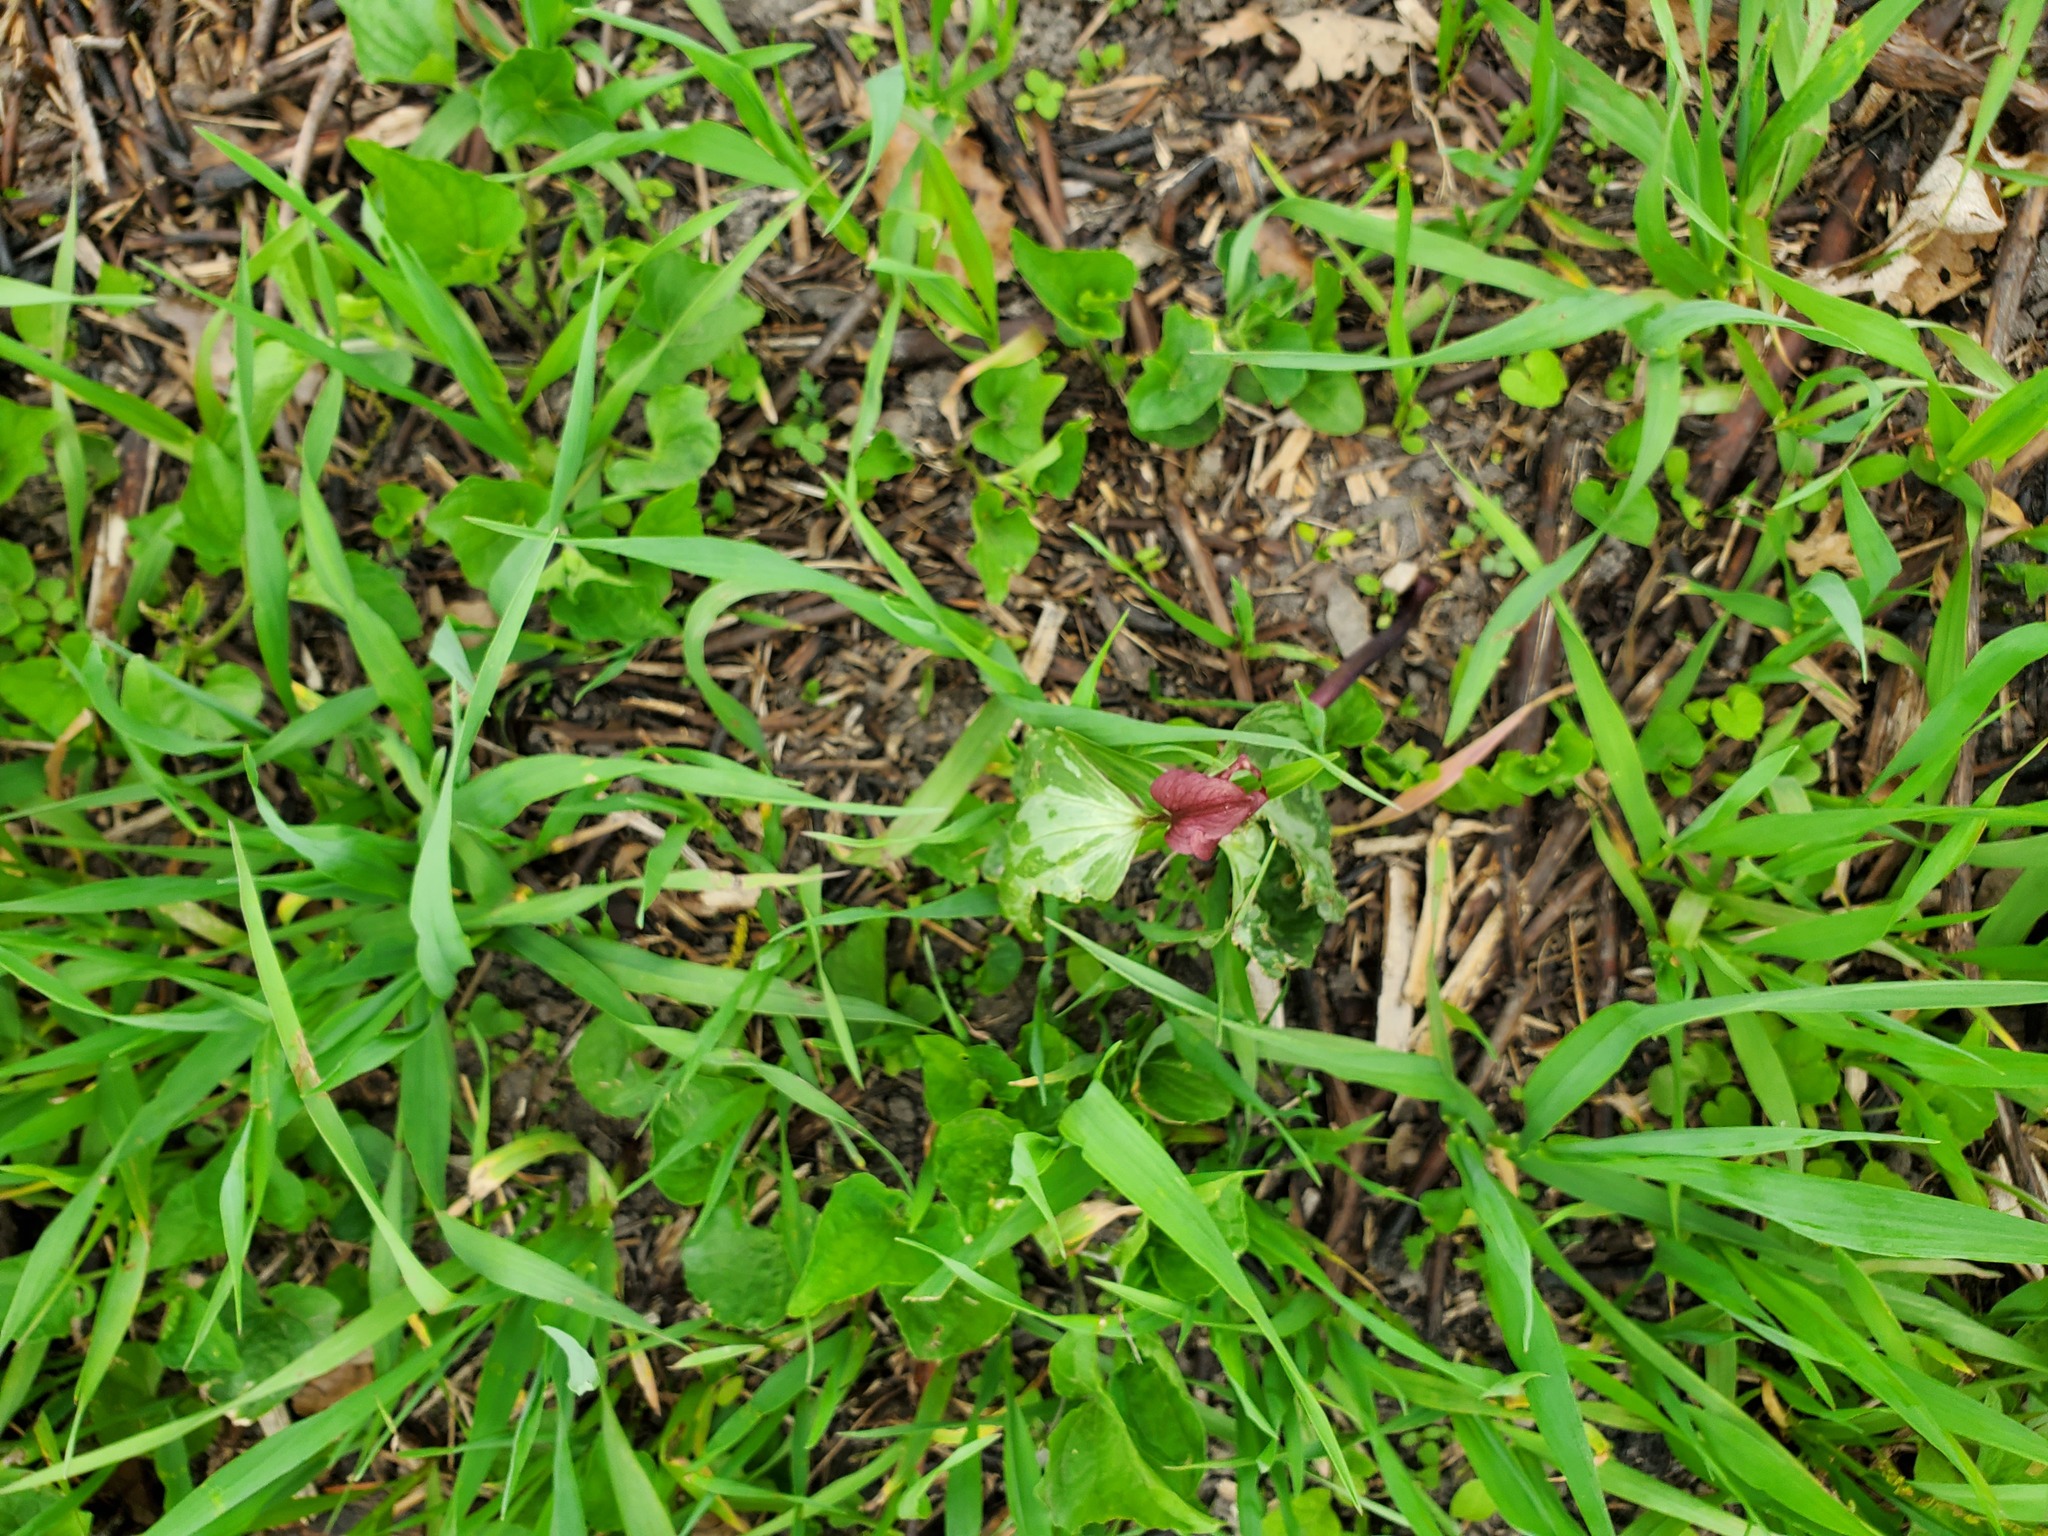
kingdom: Plantae
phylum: Tracheophyta
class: Liliopsida
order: Liliales
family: Melanthiaceae
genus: Trillium
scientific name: Trillium recurvatum
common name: Bloody butcher
